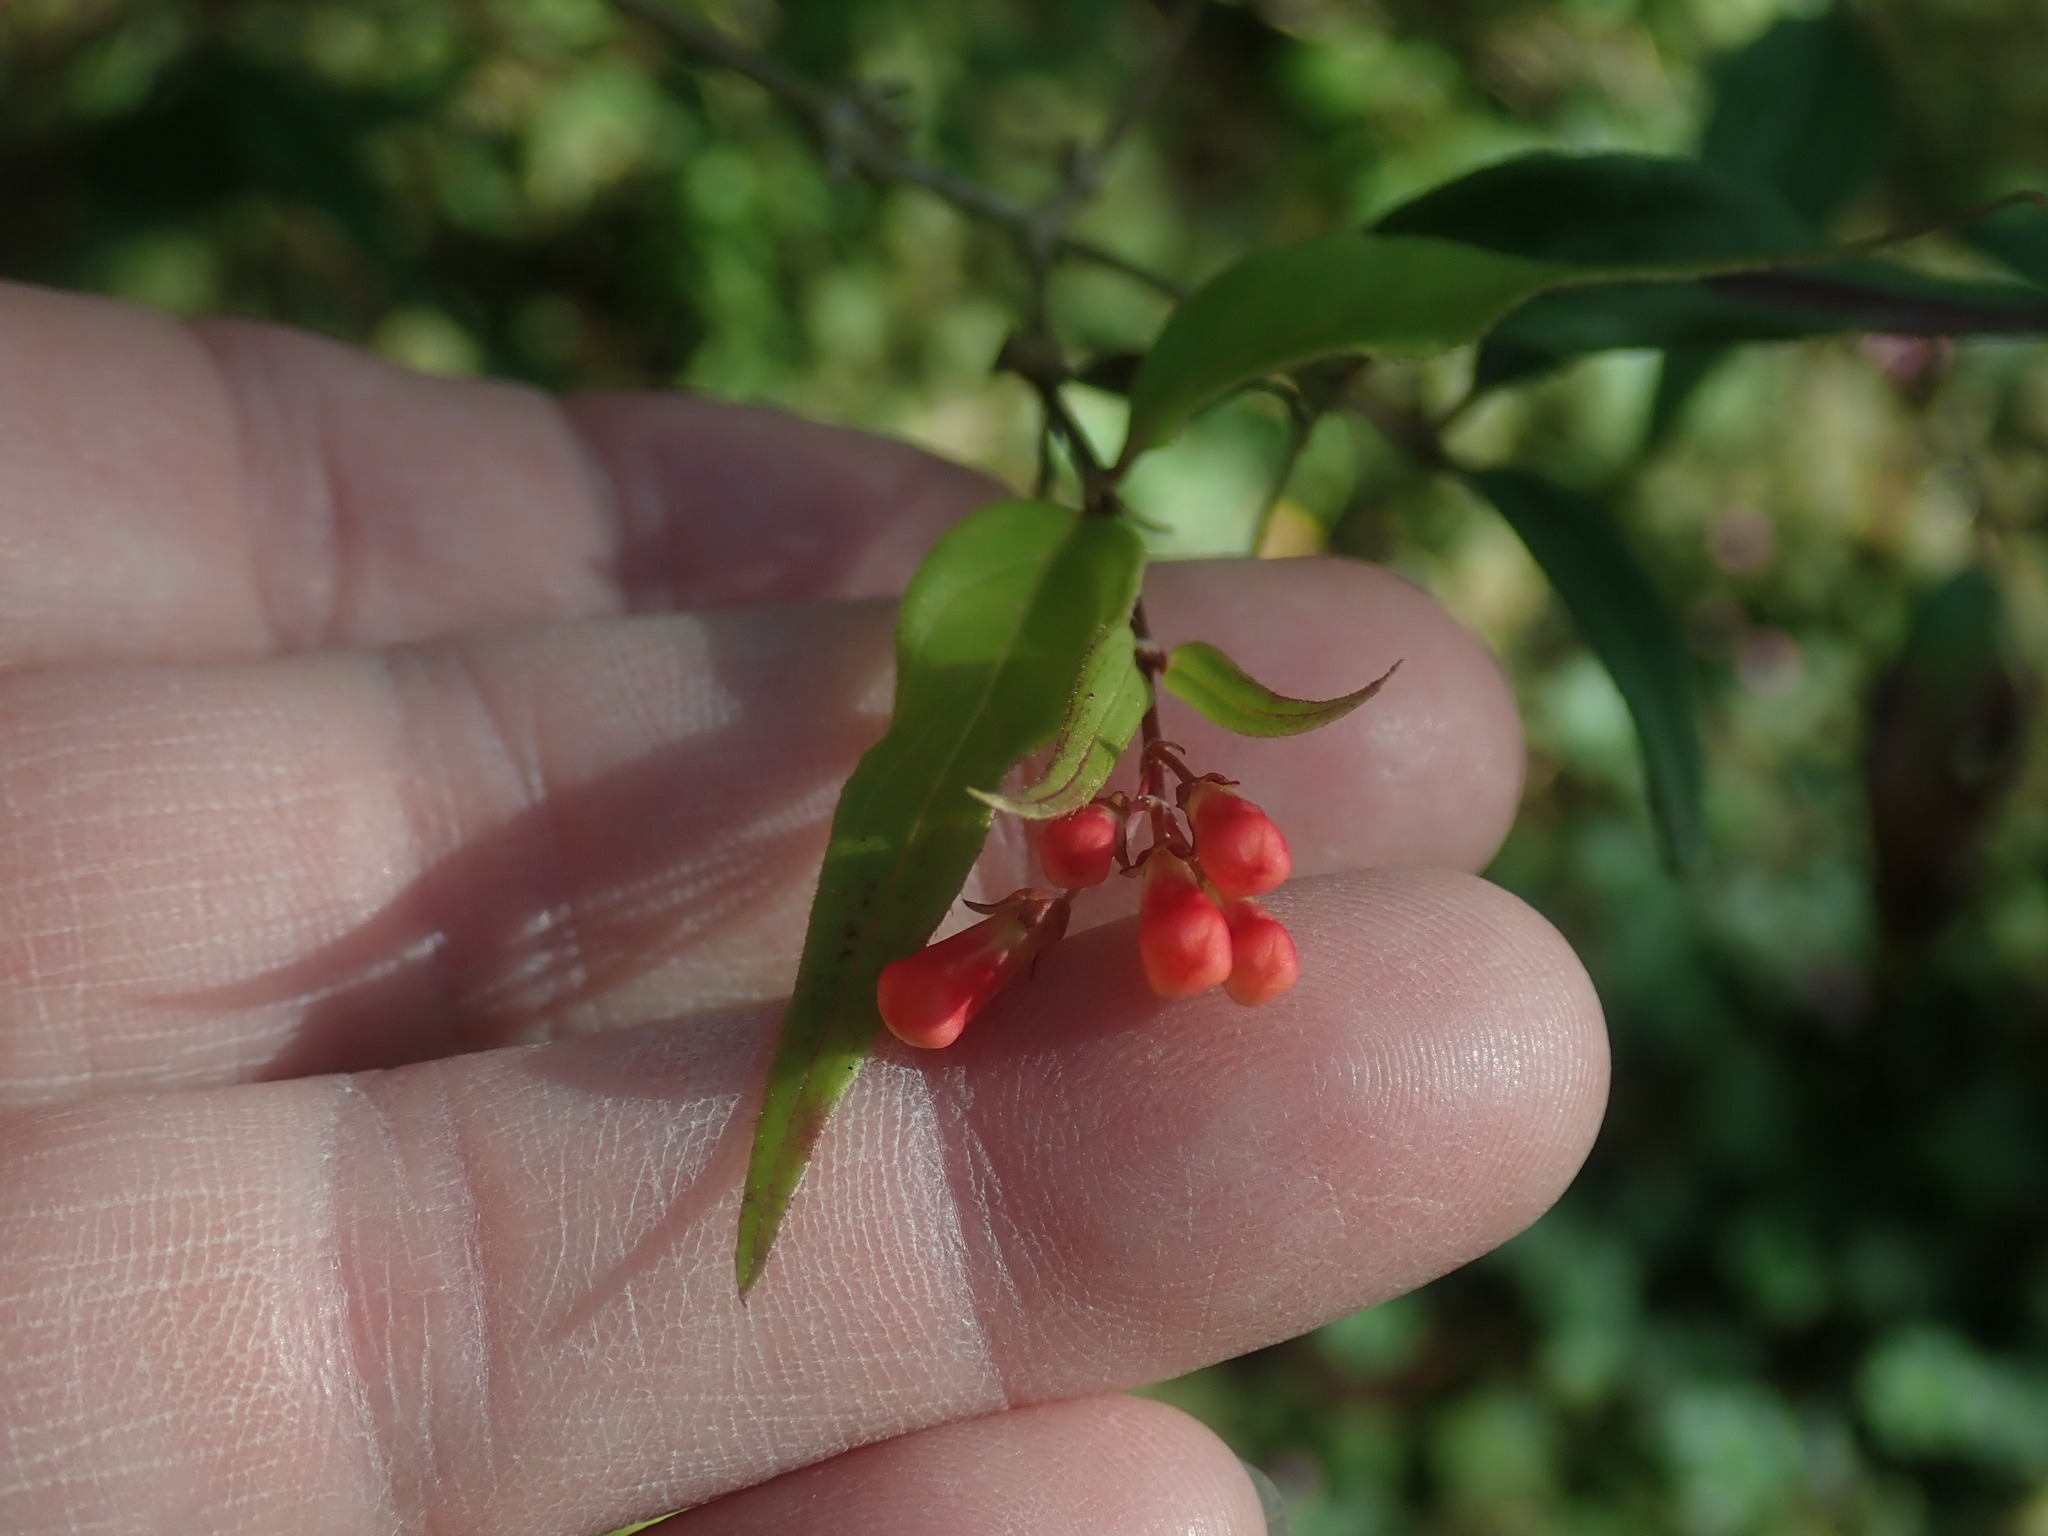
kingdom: Plantae
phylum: Tracheophyta
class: Magnoliopsida
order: Gentianales
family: Rubiaceae
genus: Bouvardia
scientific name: Bouvardia ternifolia
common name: Scarlet bouvardia
